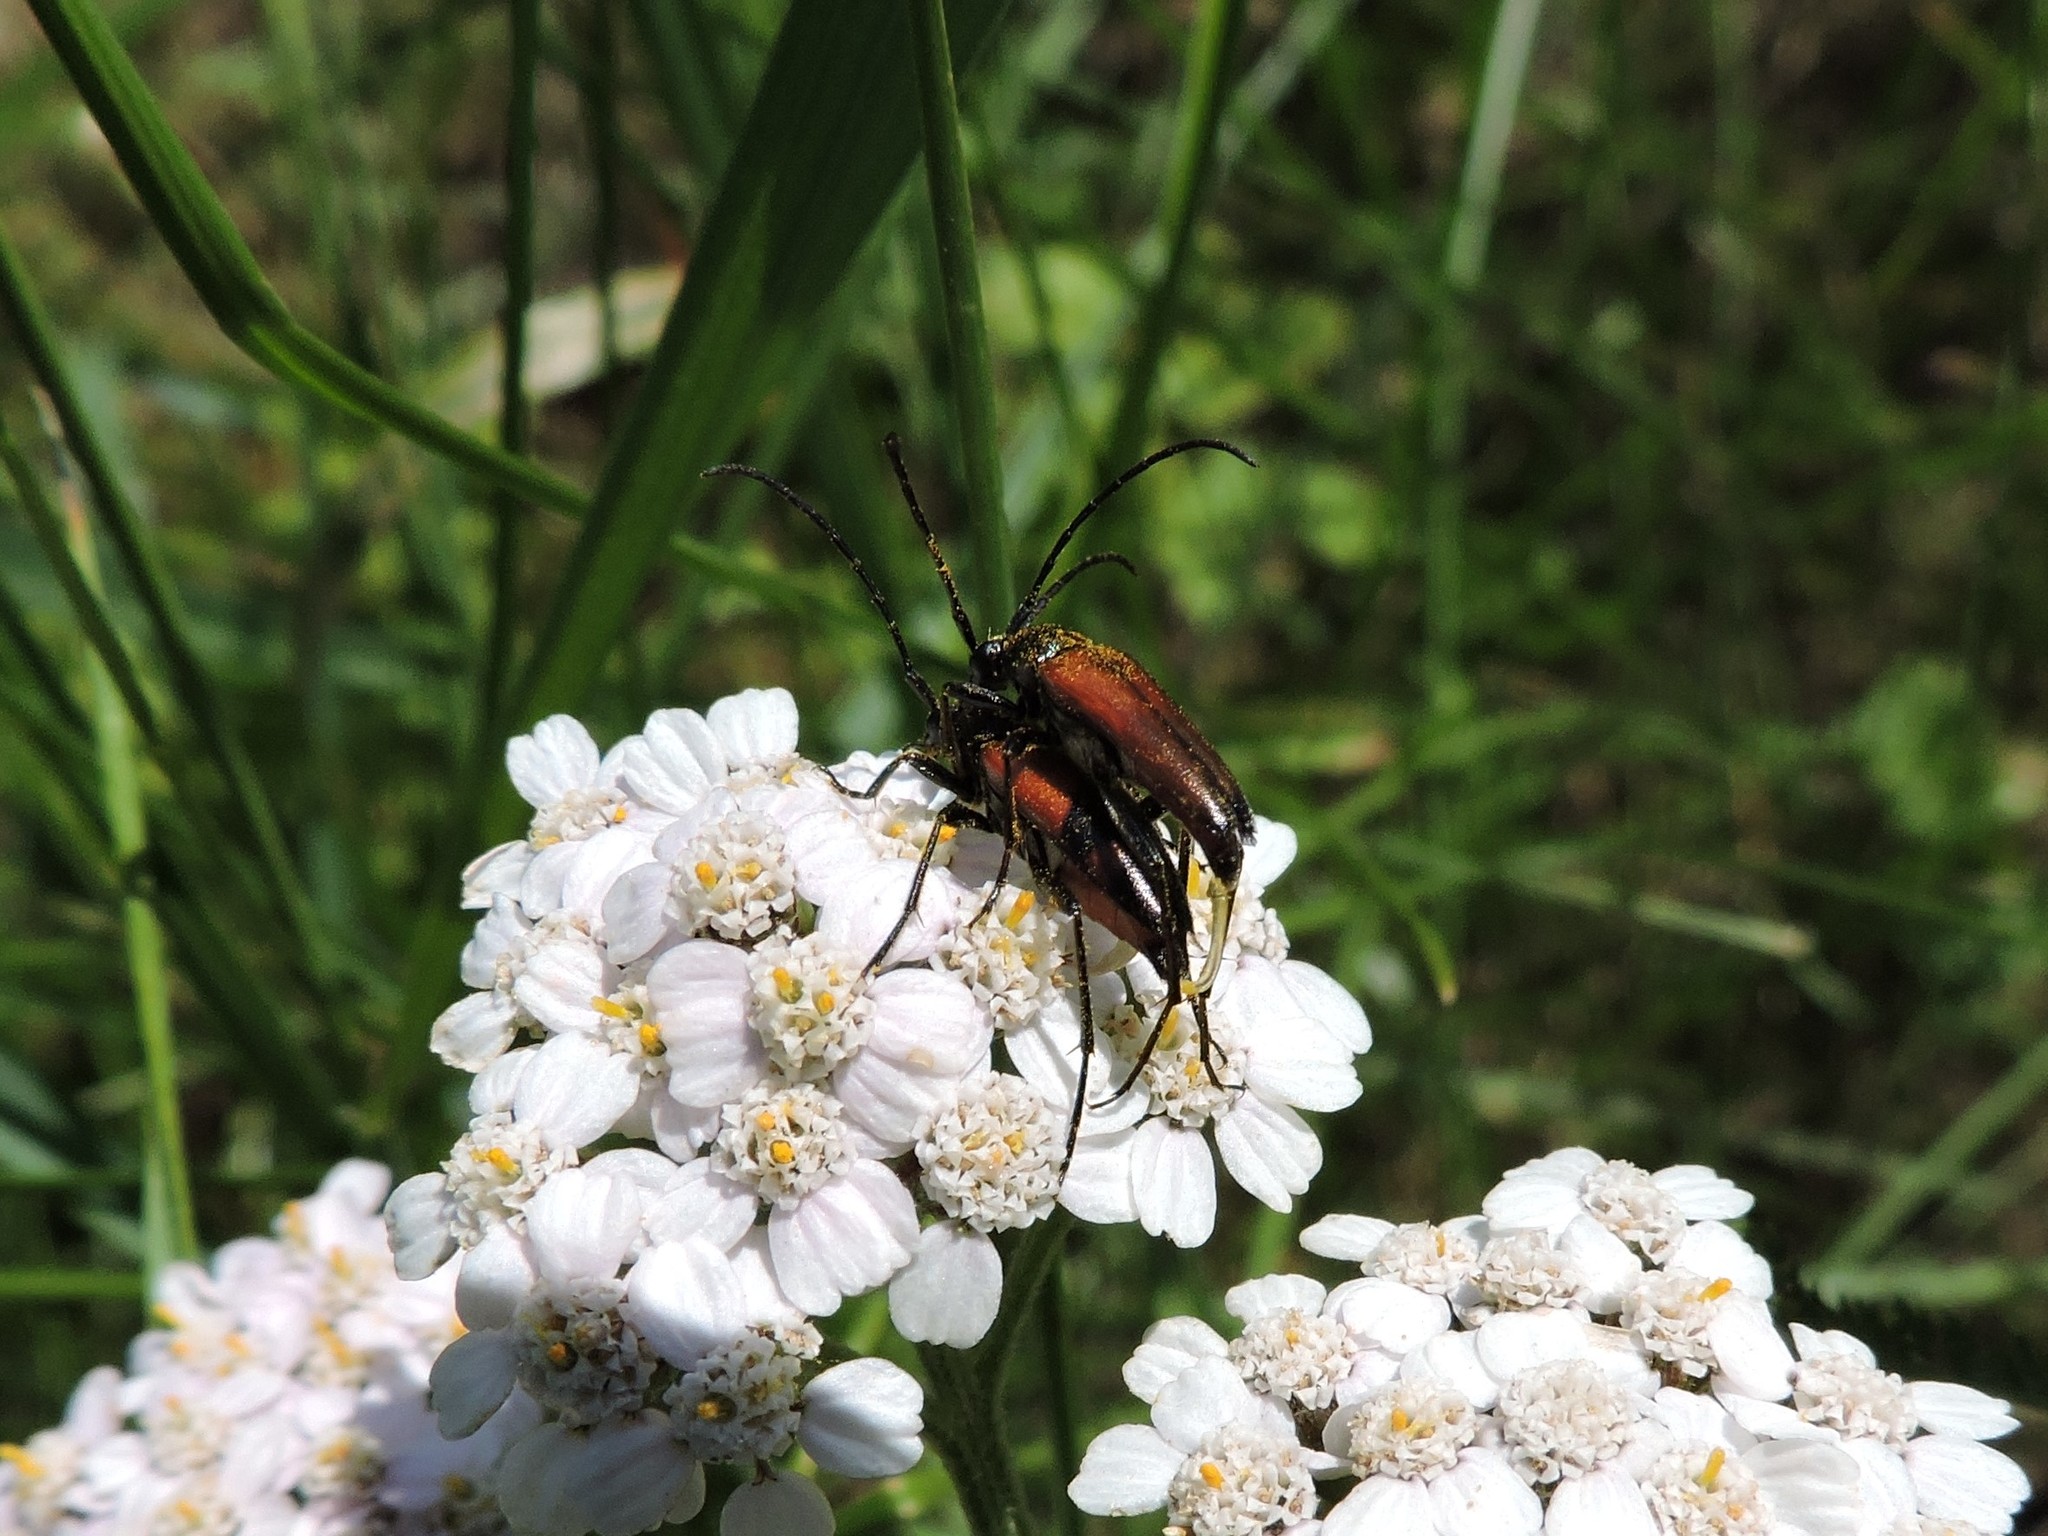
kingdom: Animalia
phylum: Arthropoda
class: Insecta
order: Coleoptera
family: Cerambycidae
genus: Stenurella
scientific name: Stenurella bifasciata
